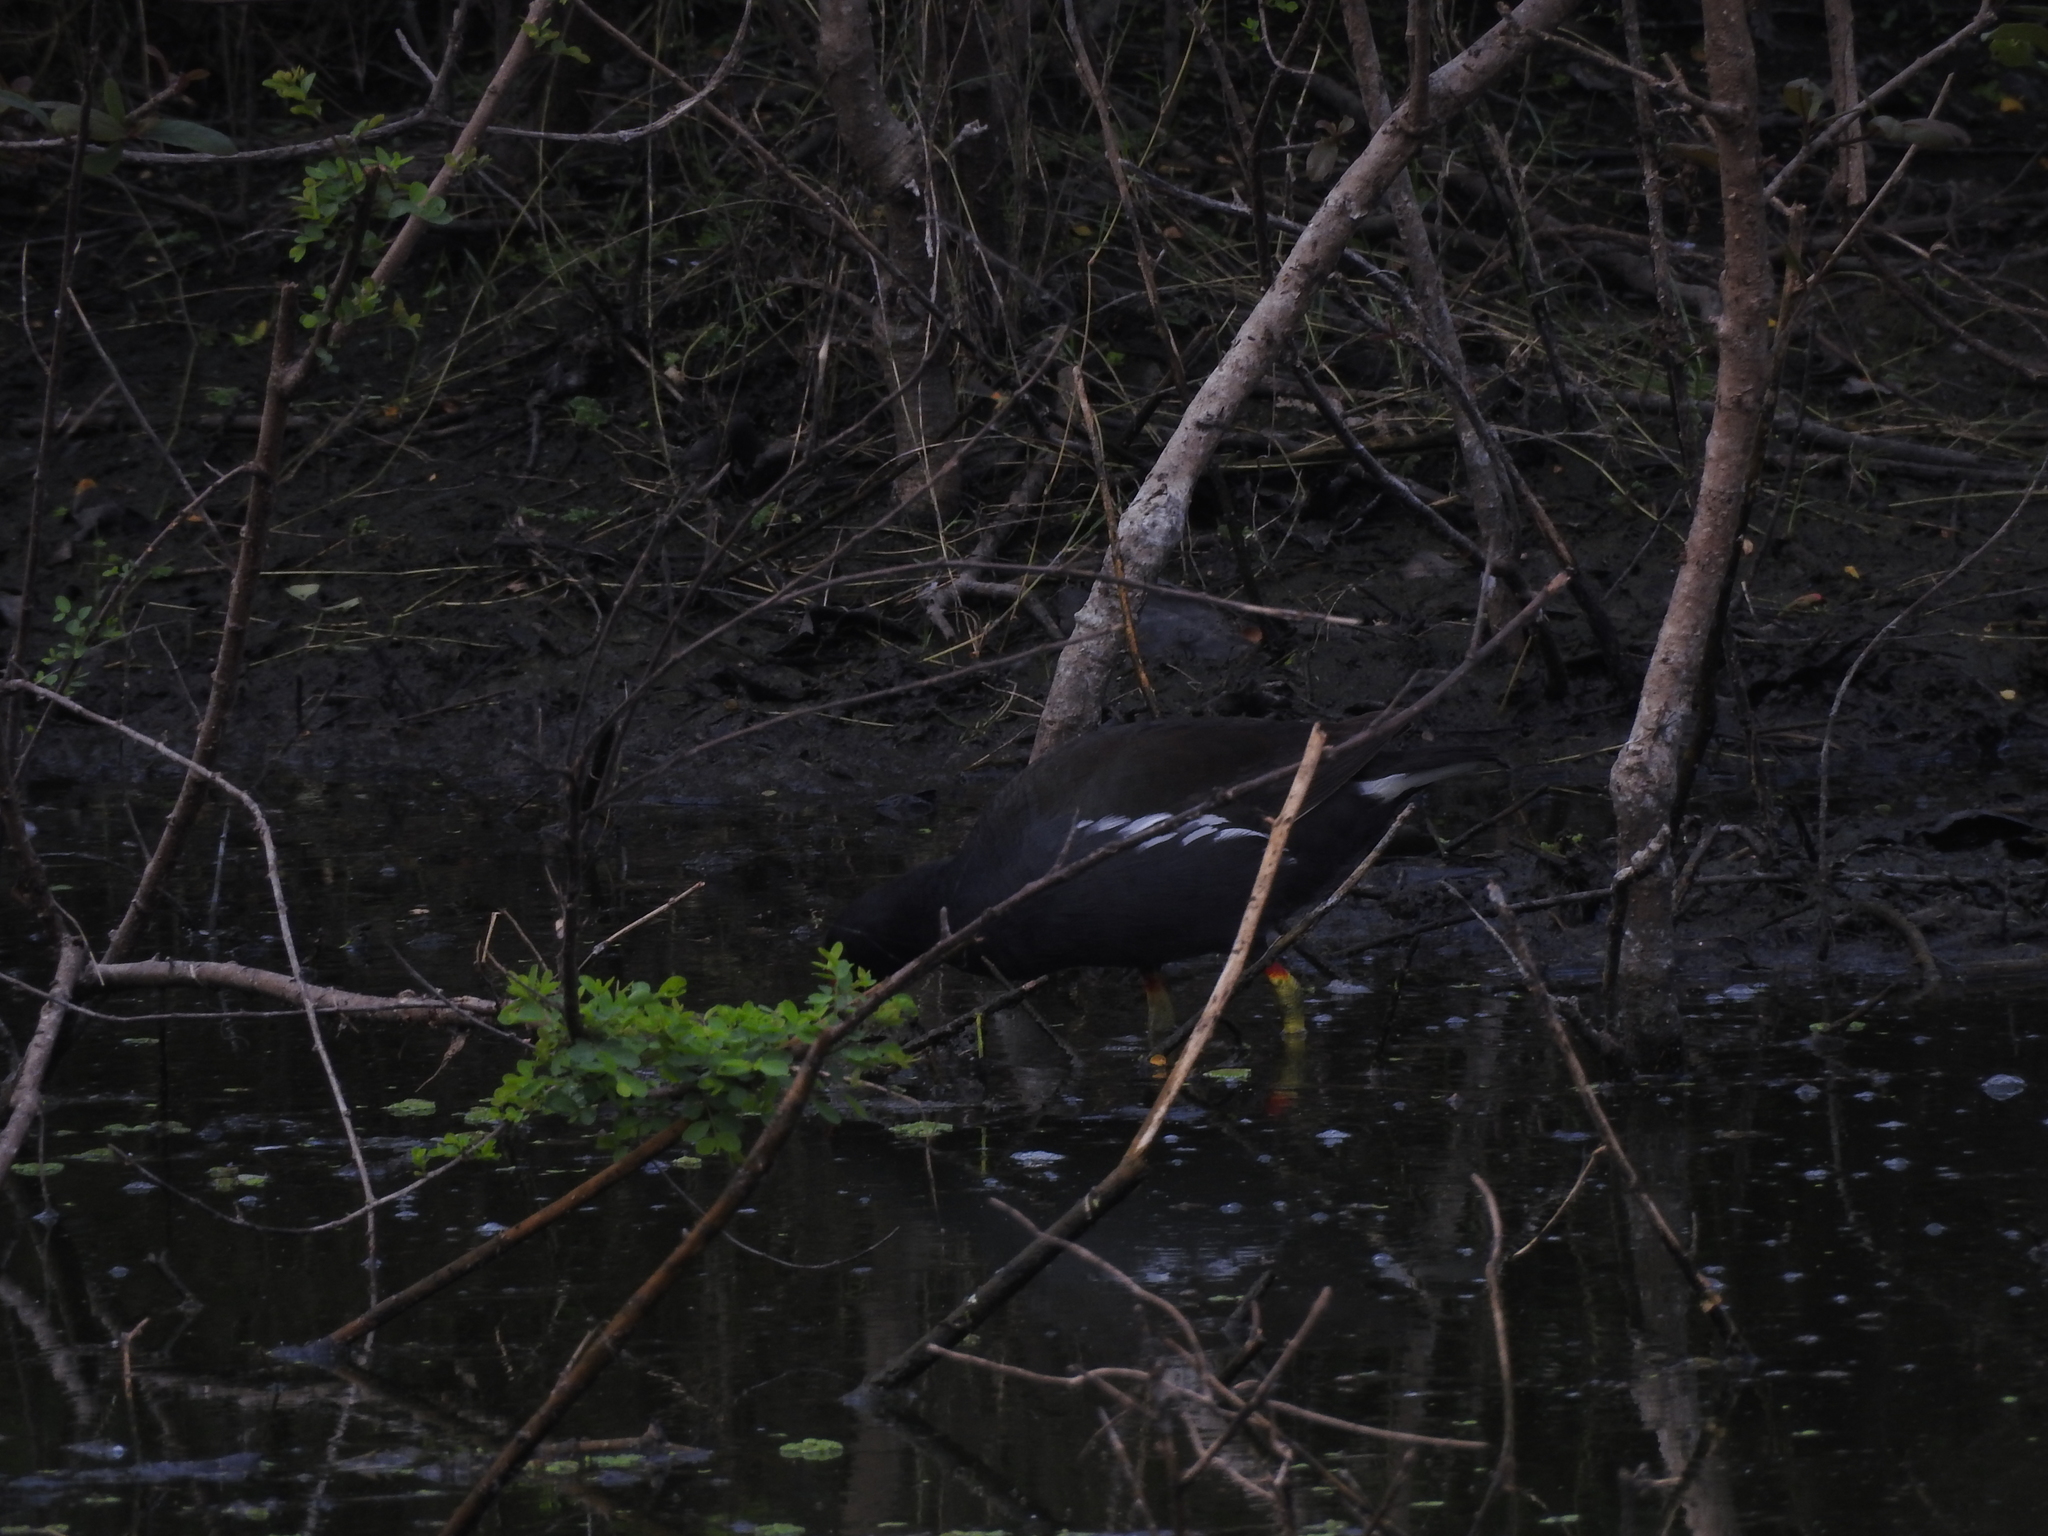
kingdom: Animalia
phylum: Chordata
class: Aves
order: Gruiformes
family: Rallidae
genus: Gallinula
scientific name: Gallinula chloropus
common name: Common moorhen
